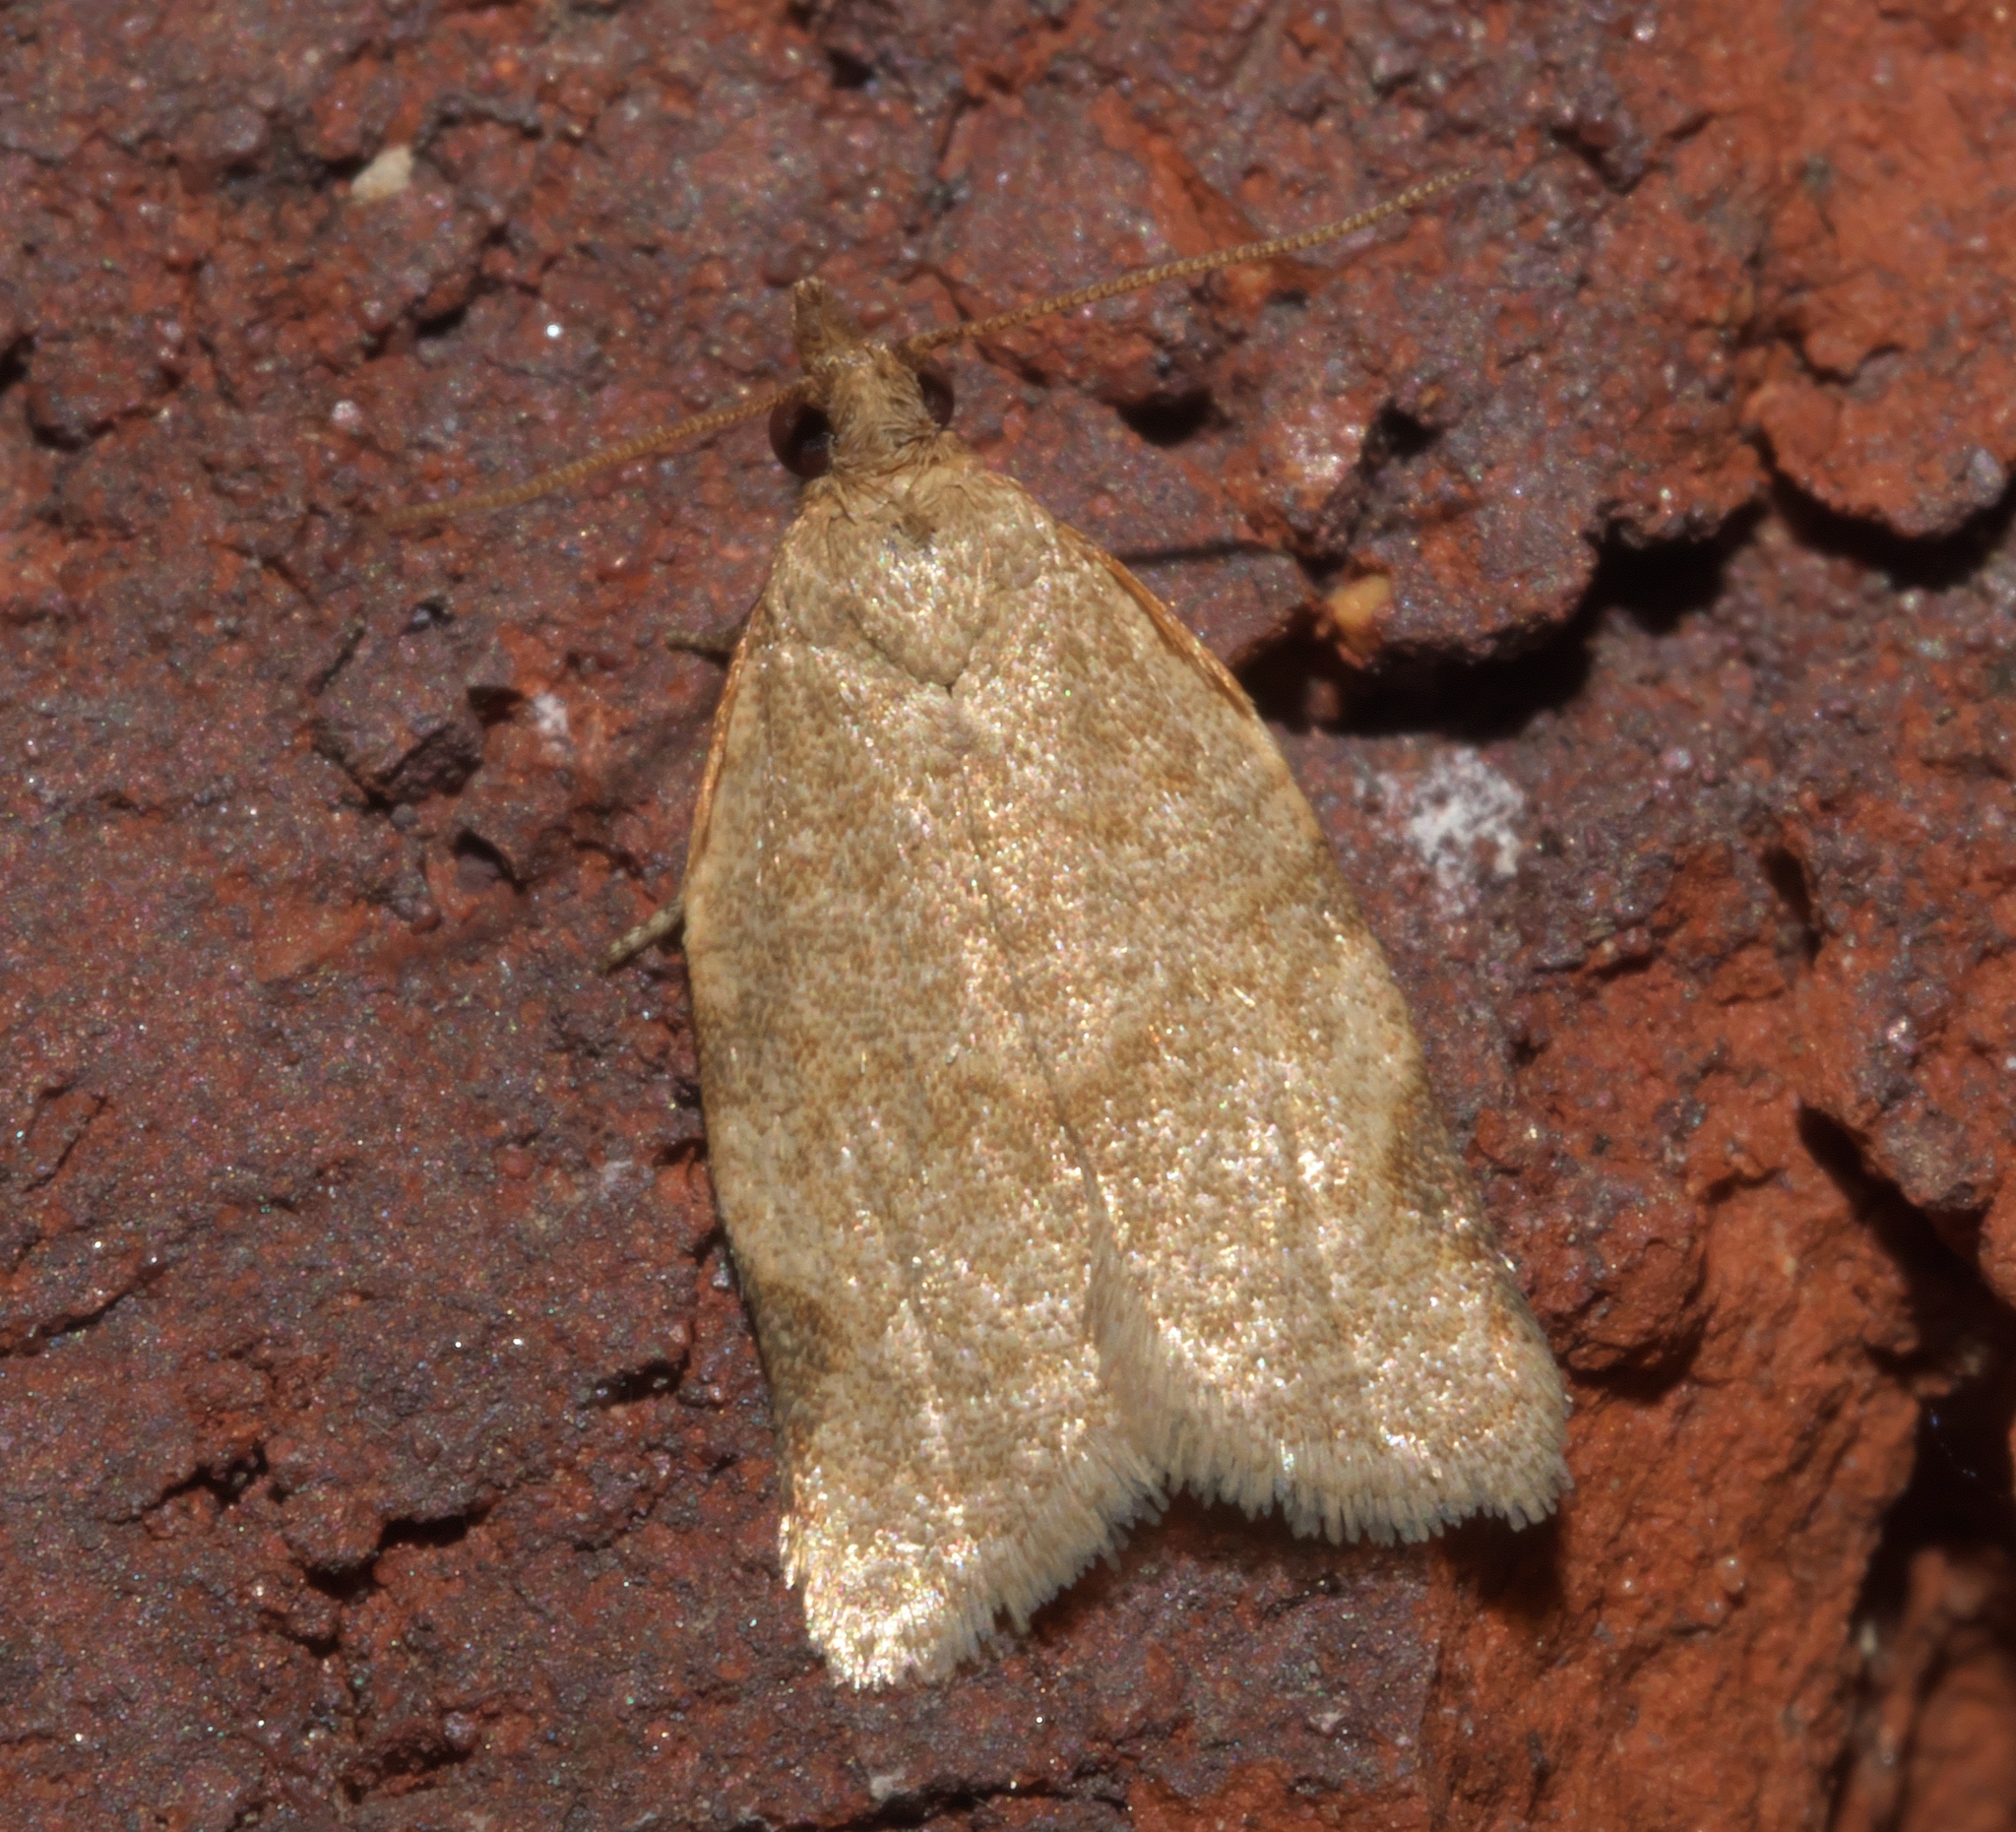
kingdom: Animalia
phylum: Arthropoda
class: Insecta
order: Lepidoptera
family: Tortricidae
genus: Clepsis
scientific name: Clepsis virescana
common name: Greenish apple moth
